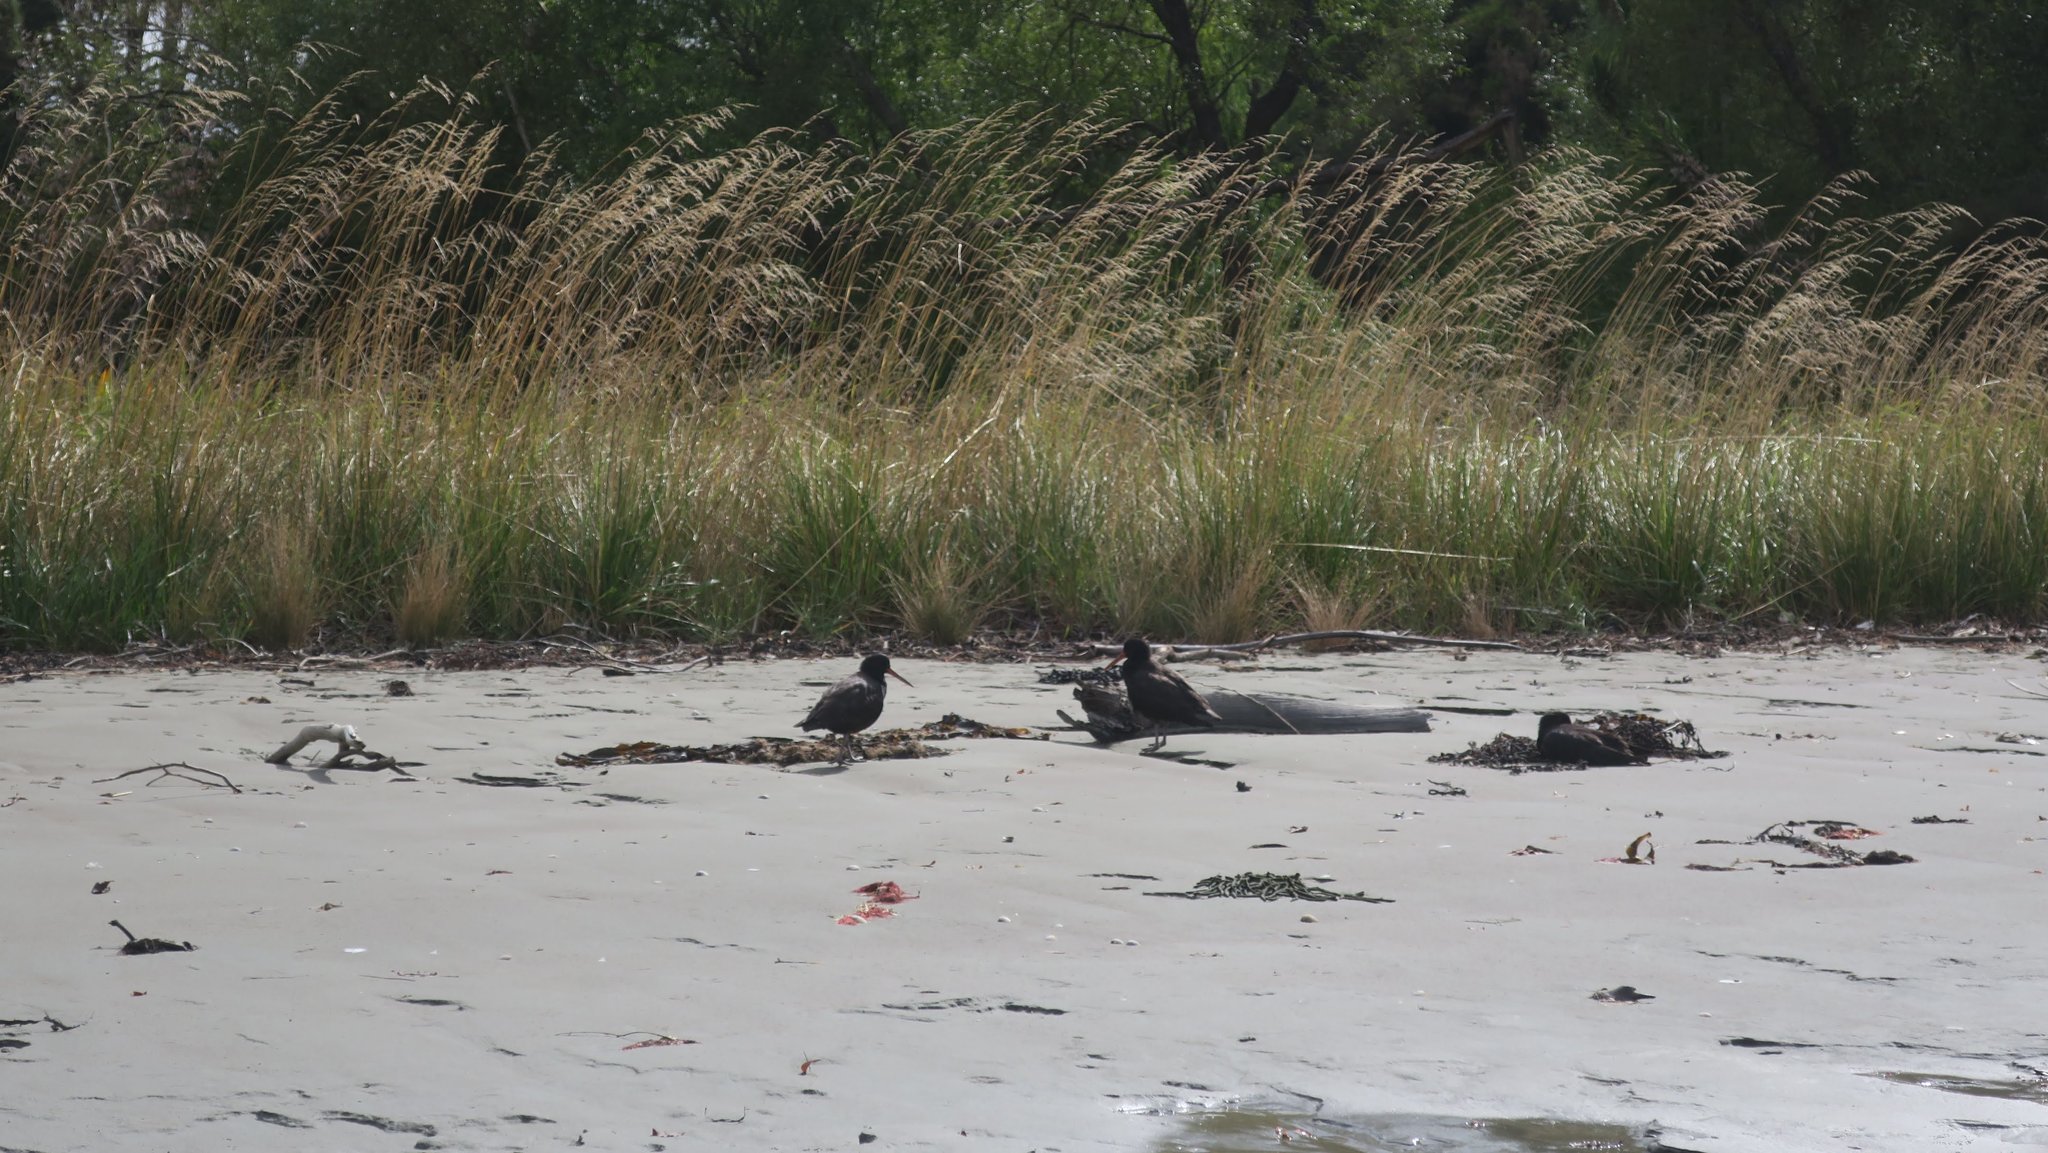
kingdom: Animalia
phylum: Chordata
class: Aves
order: Charadriiformes
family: Haematopodidae
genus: Haematopus
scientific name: Haematopus unicolor
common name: Variable oystercatcher
